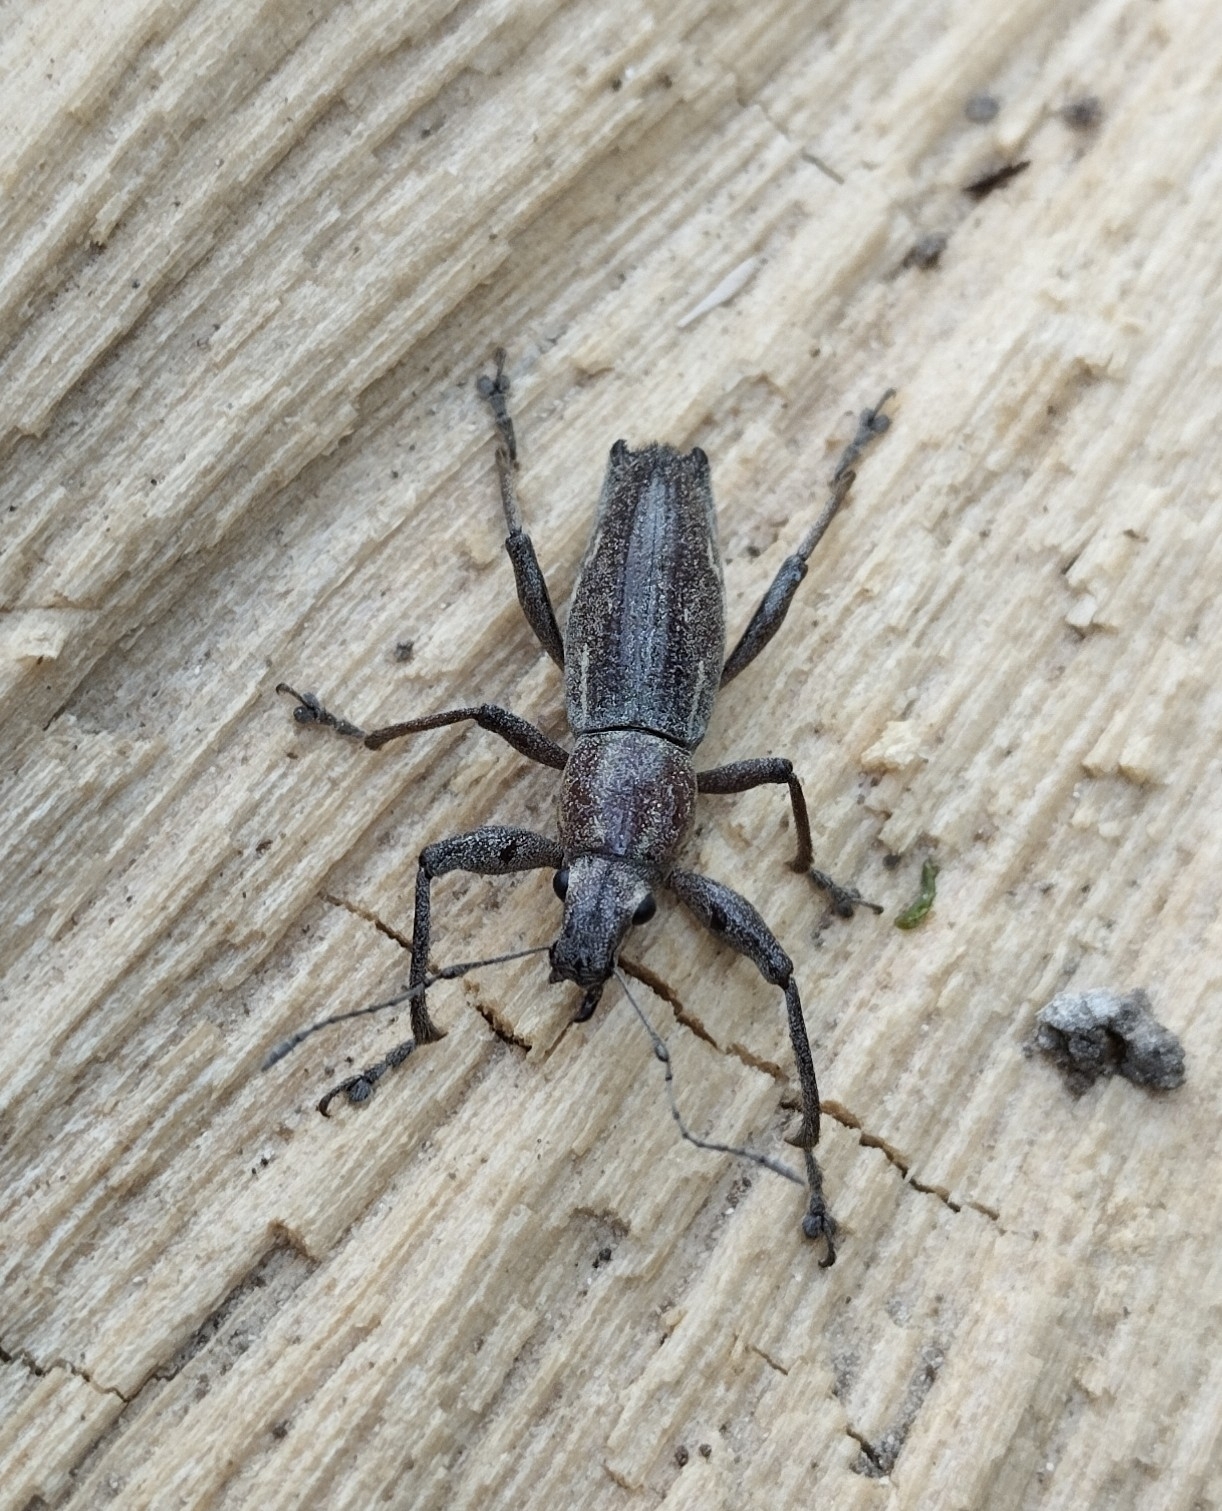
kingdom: Animalia
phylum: Arthropoda
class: Insecta
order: Coleoptera
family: Curculionidae
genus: Naupactus
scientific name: Naupactus xanthographus
